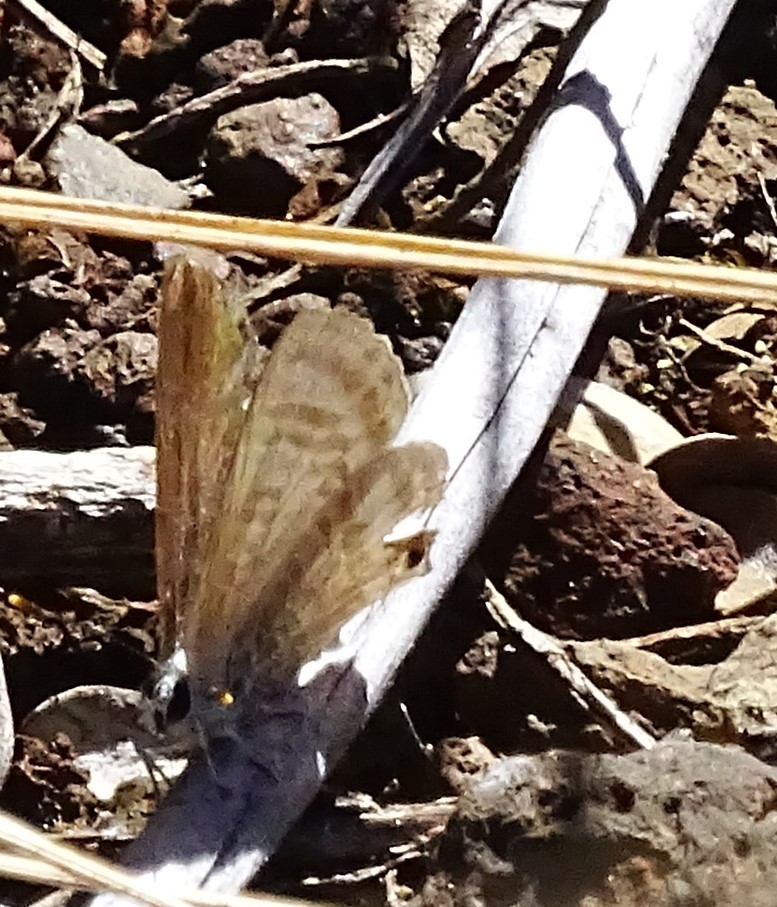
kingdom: Animalia
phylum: Arthropoda
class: Insecta
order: Lepidoptera
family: Lycaenidae
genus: Lampides
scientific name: Lampides boeticus
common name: Long-tailed blue
